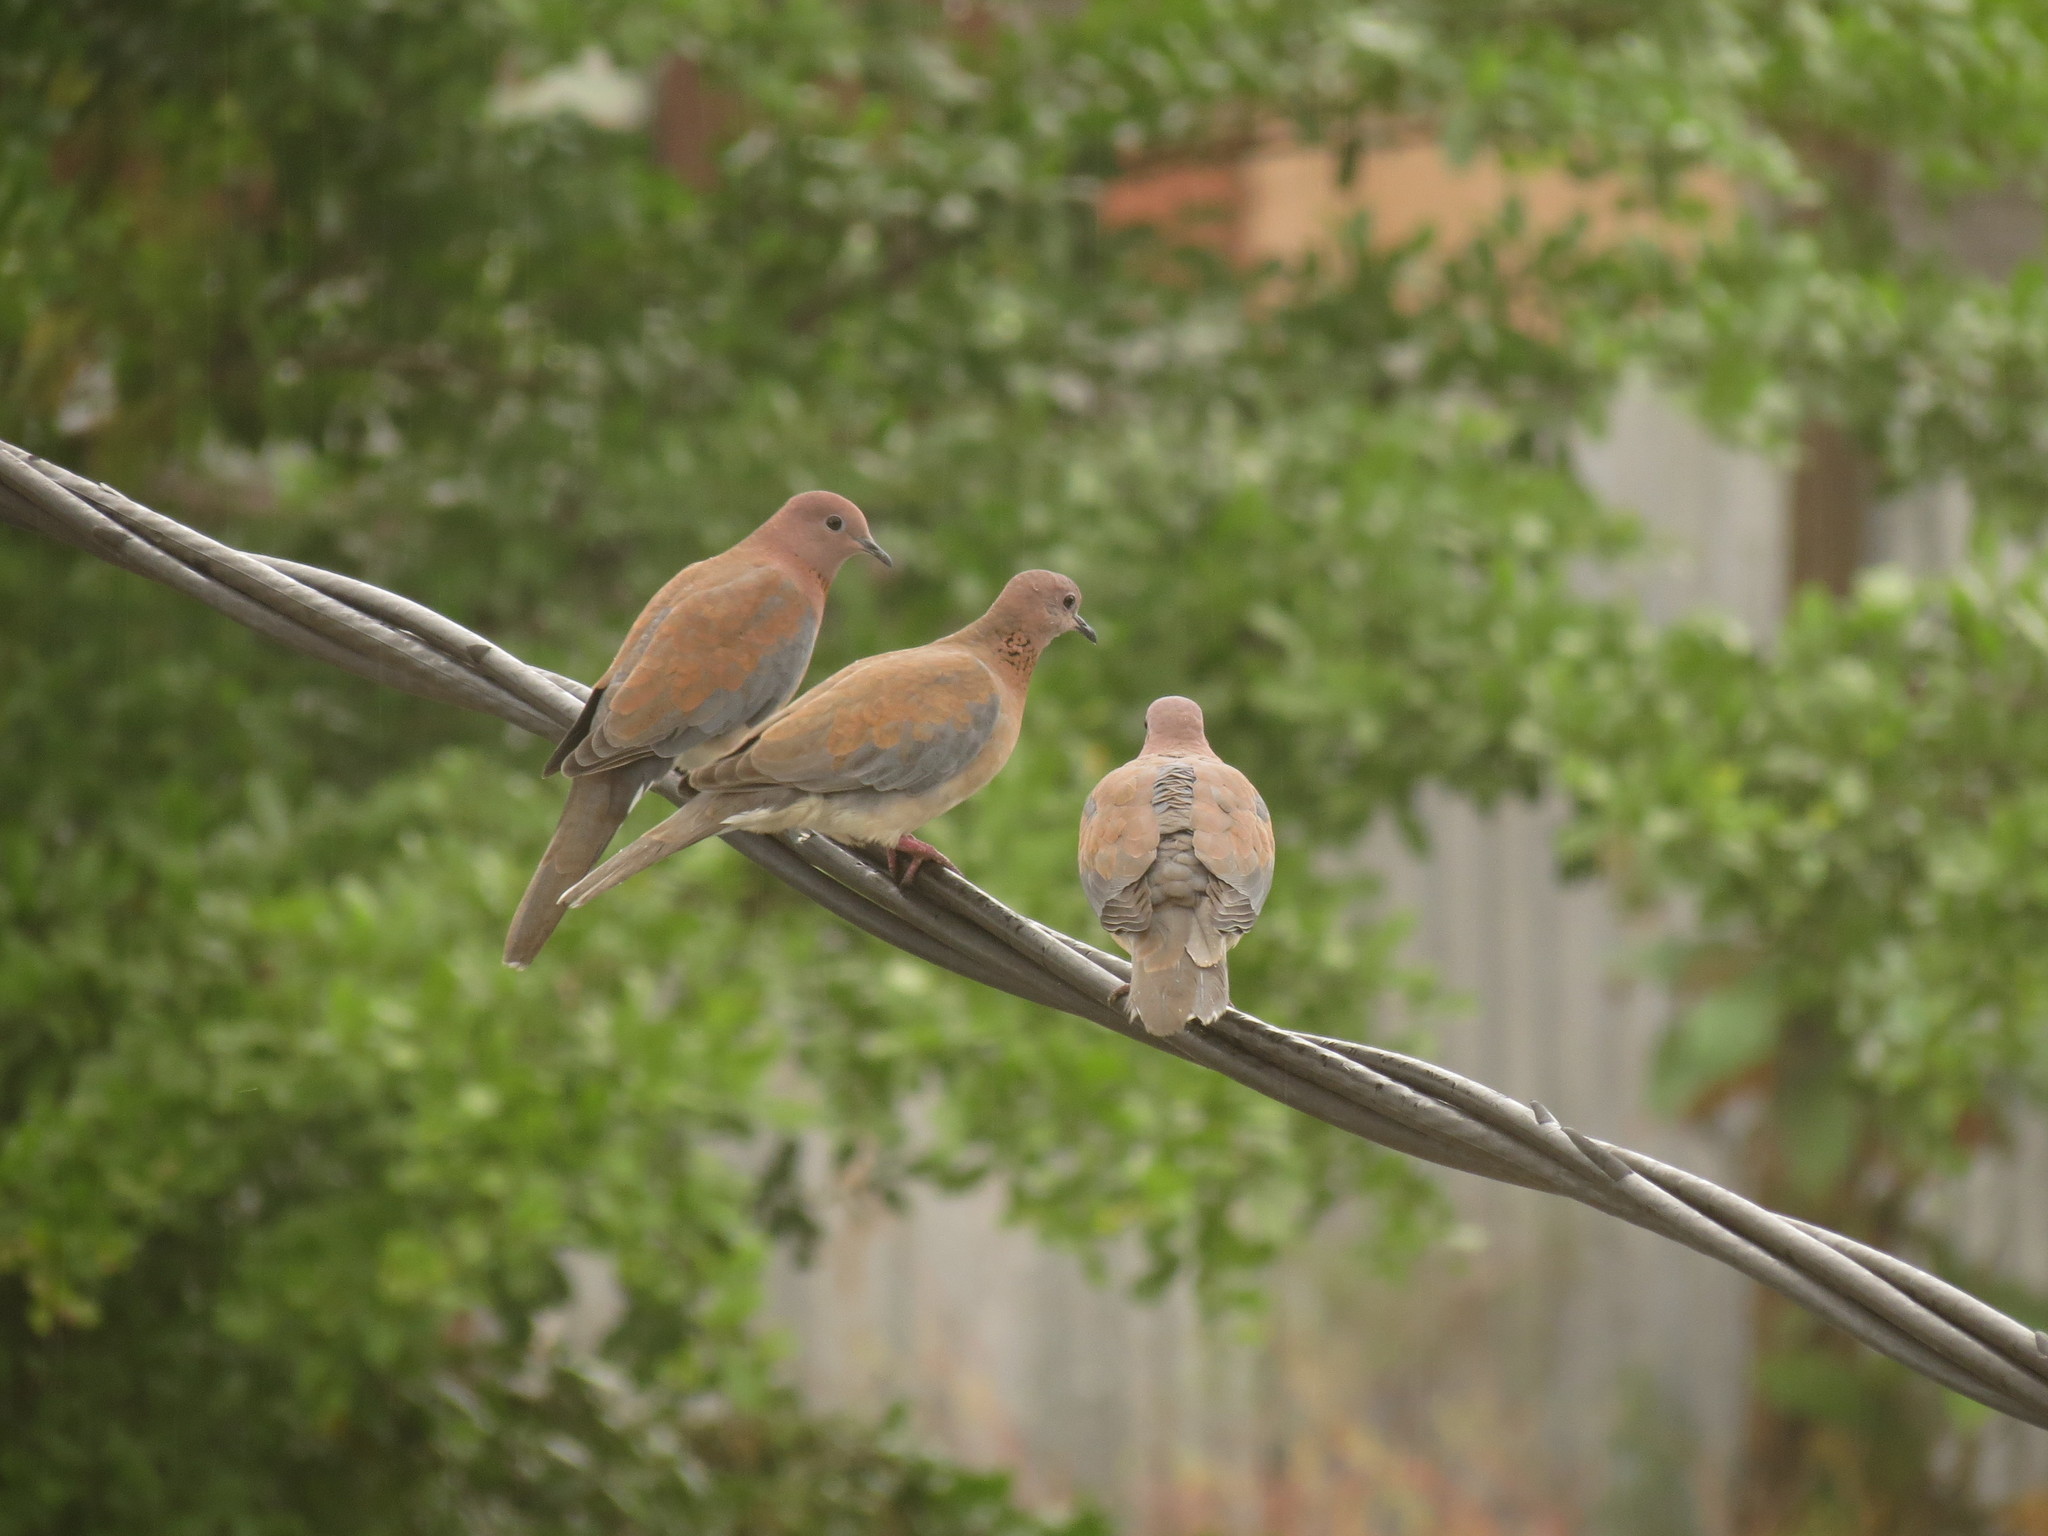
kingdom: Animalia
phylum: Chordata
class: Aves
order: Columbiformes
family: Columbidae
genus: Spilopelia
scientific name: Spilopelia senegalensis
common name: Laughing dove
